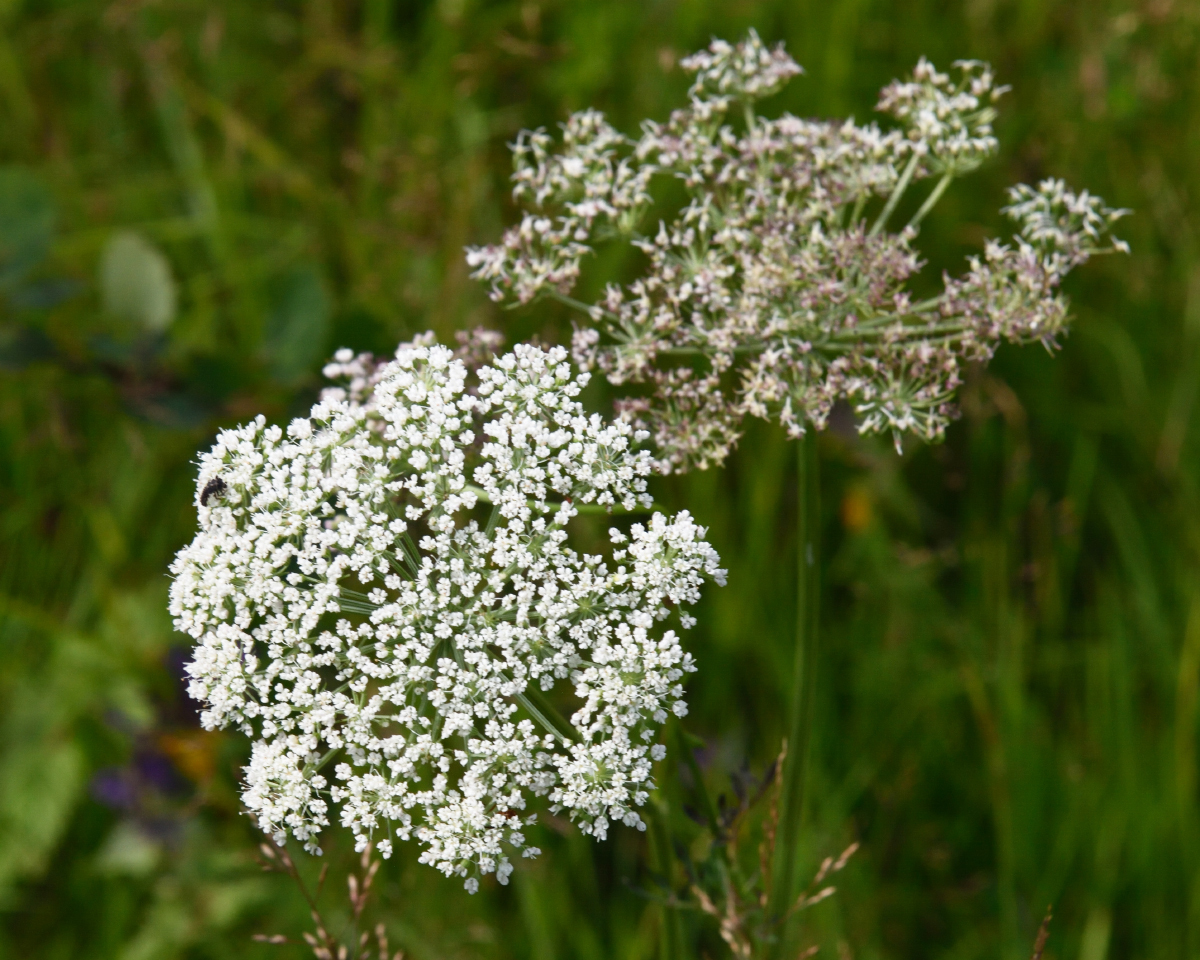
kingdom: Plantae
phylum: Tracheophyta
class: Magnoliopsida
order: Apiales
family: Apiaceae
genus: Selinum
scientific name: Selinum carvifolia
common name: Cambridge milk-parsley
